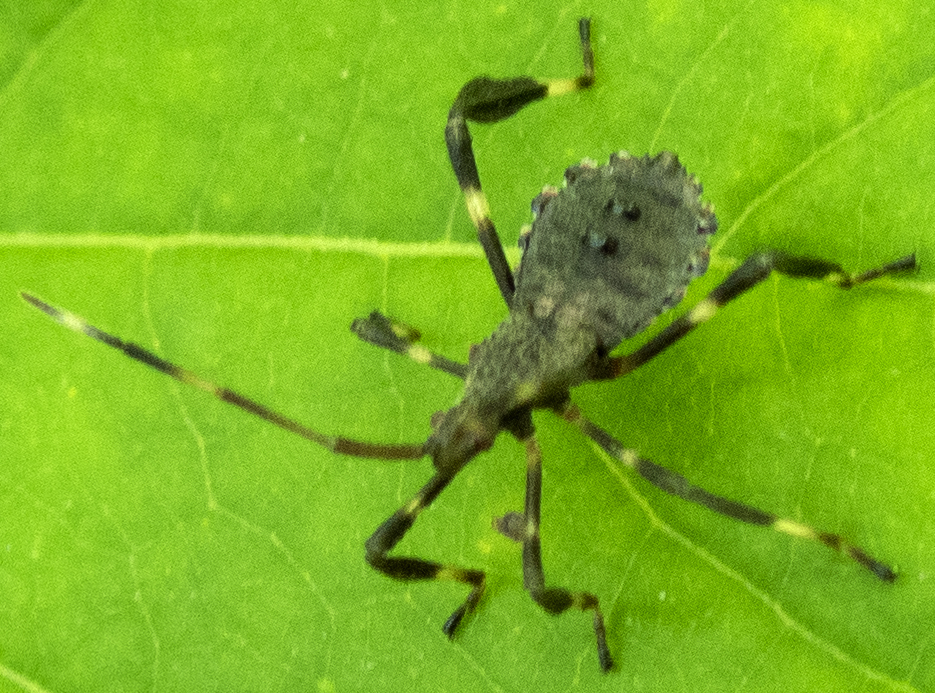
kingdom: Animalia
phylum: Arthropoda
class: Insecta
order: Hemiptera
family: Coreidae
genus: Acanthocephala
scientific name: Acanthocephala terminalis
